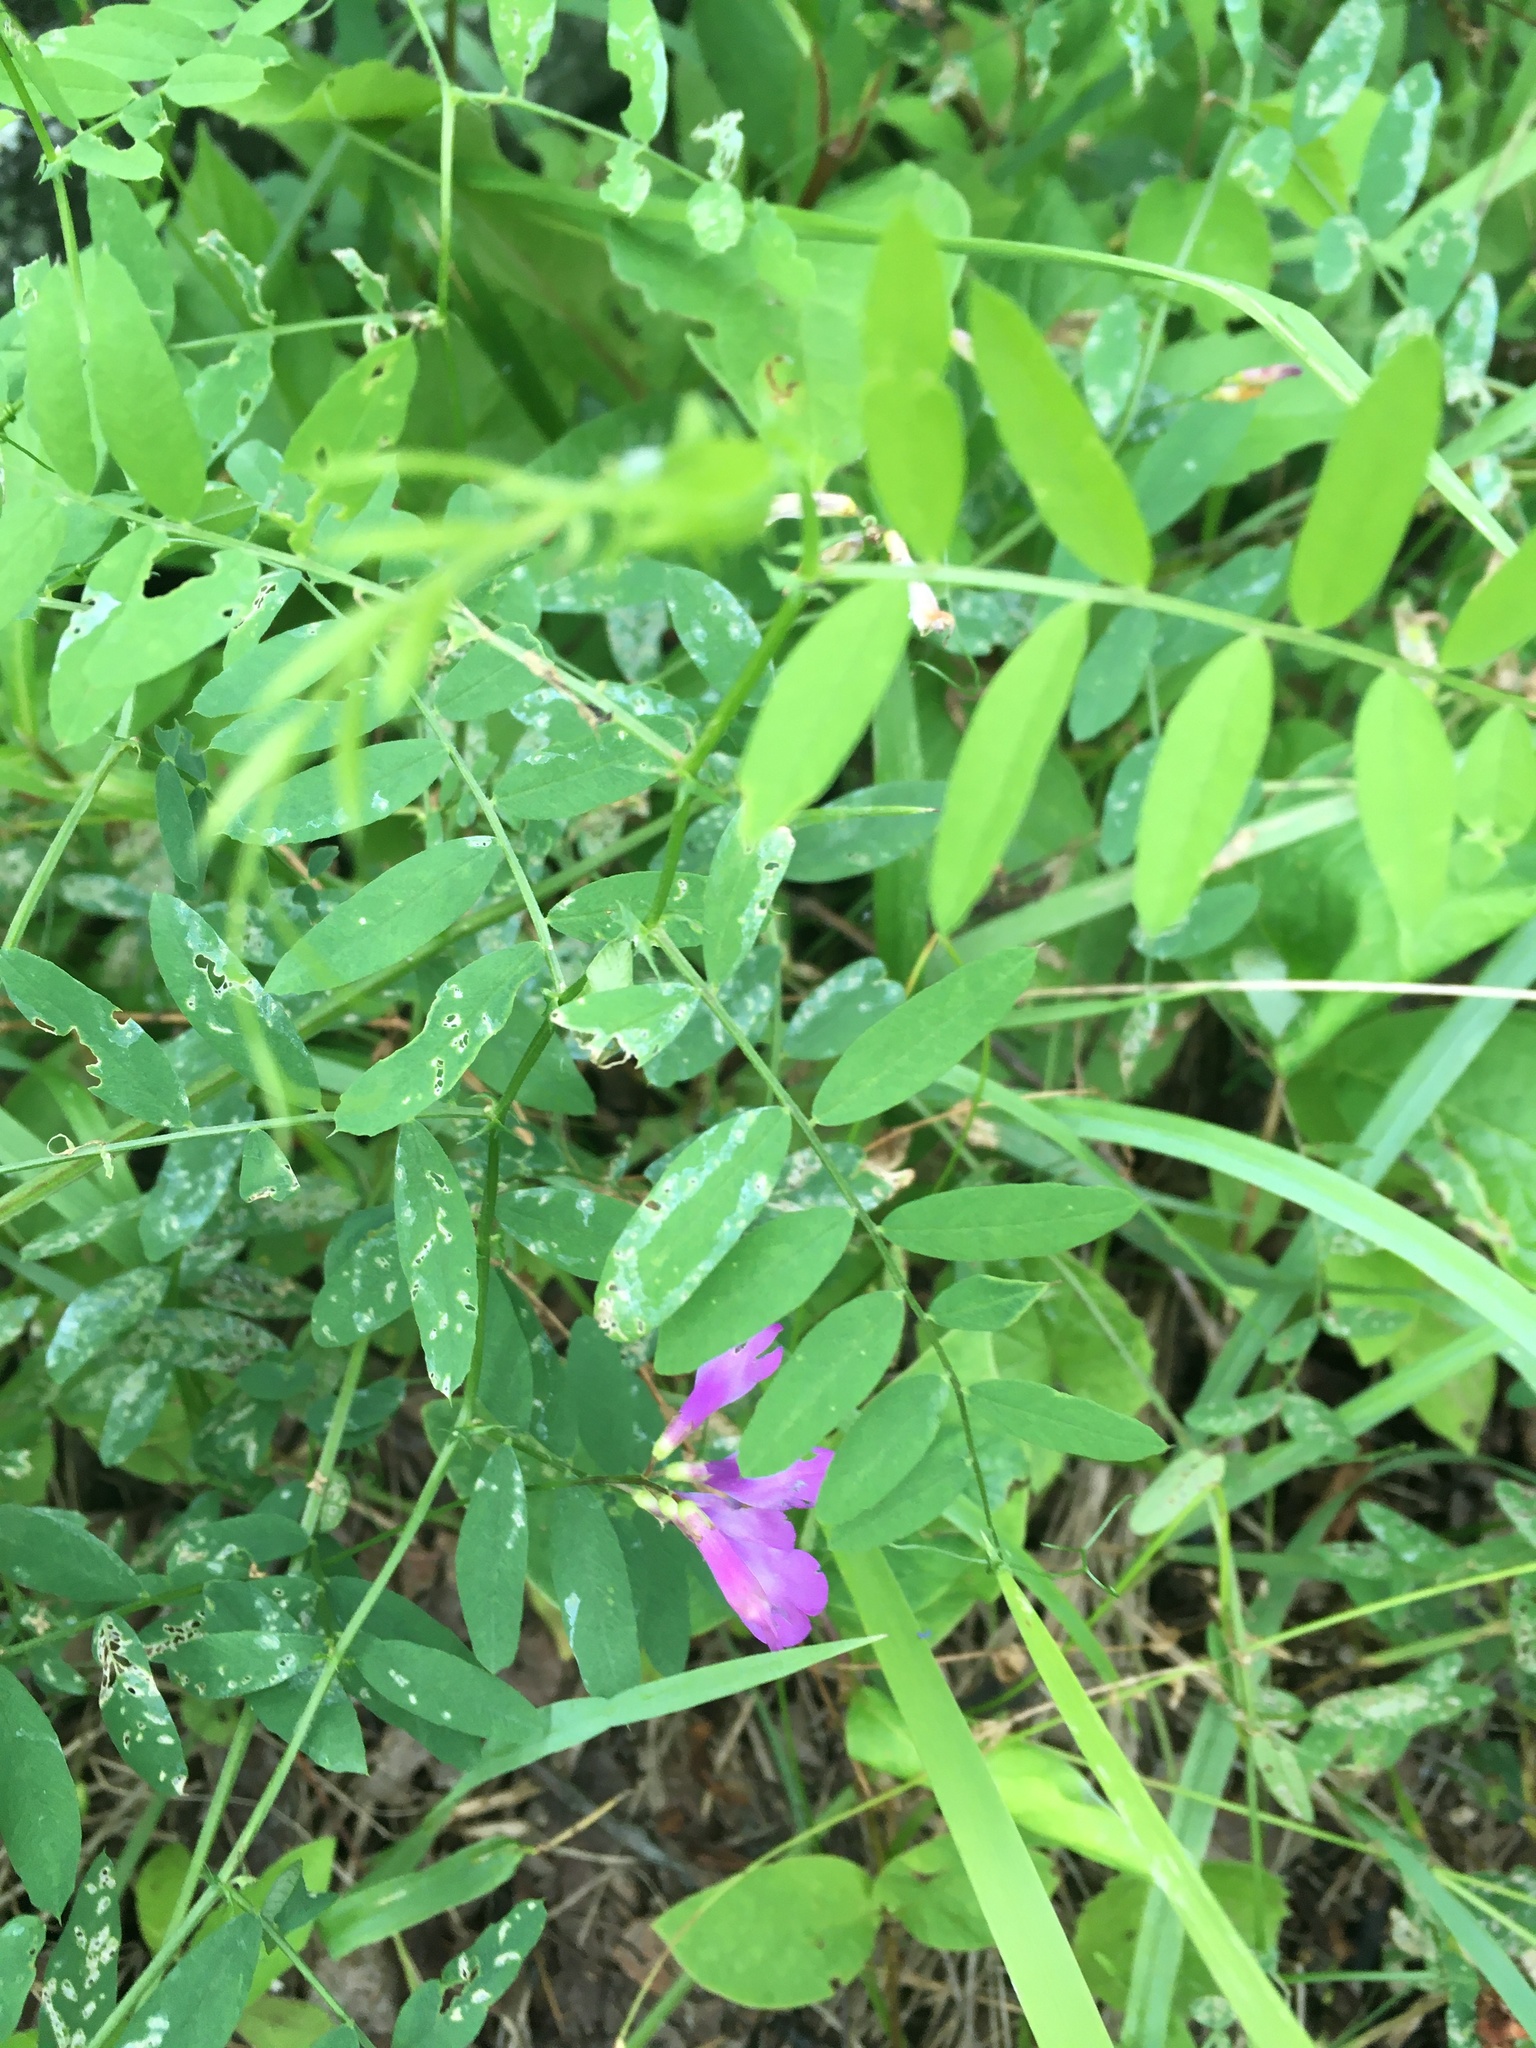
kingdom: Plantae
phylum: Tracheophyta
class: Magnoliopsida
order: Fabales
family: Fabaceae
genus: Vicia
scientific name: Vicia americana
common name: American vetch
